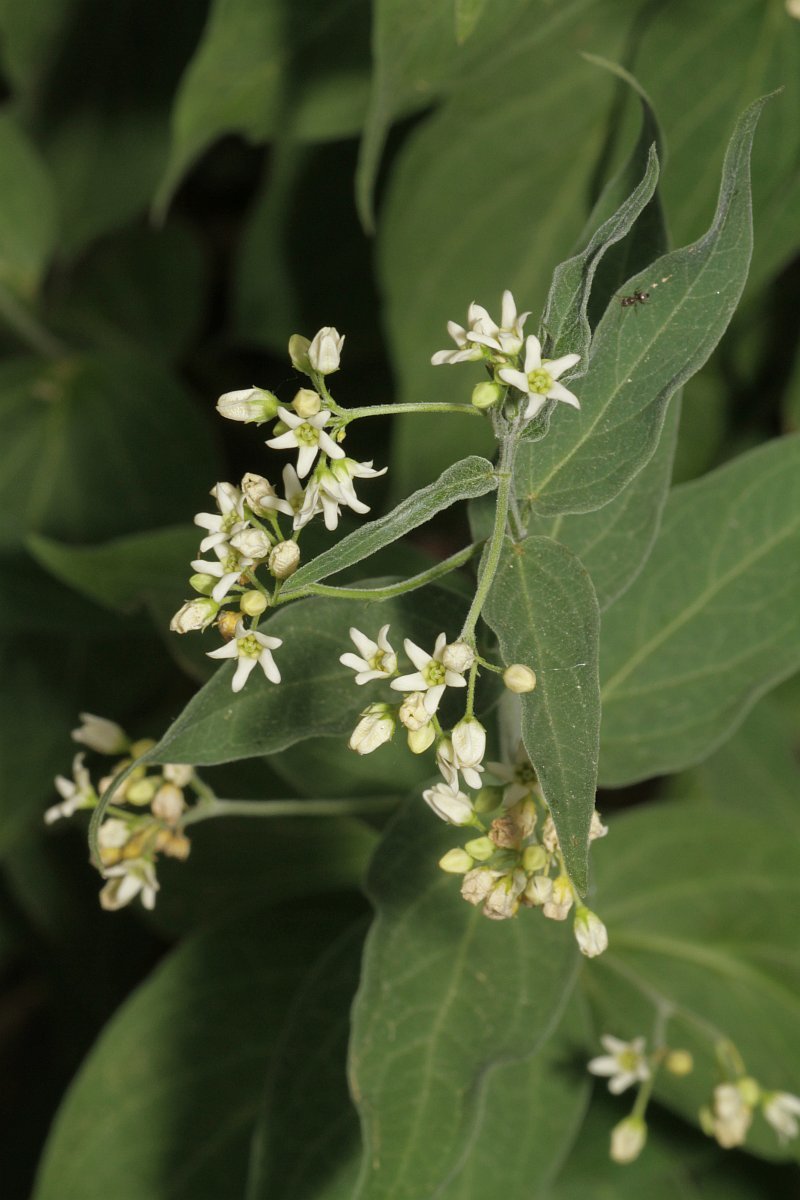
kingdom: Plantae
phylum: Tracheophyta
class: Magnoliopsida
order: Gentianales
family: Apocynaceae
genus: Vincetoxicum
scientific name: Vincetoxicum hirundinaria
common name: White swallowwort
